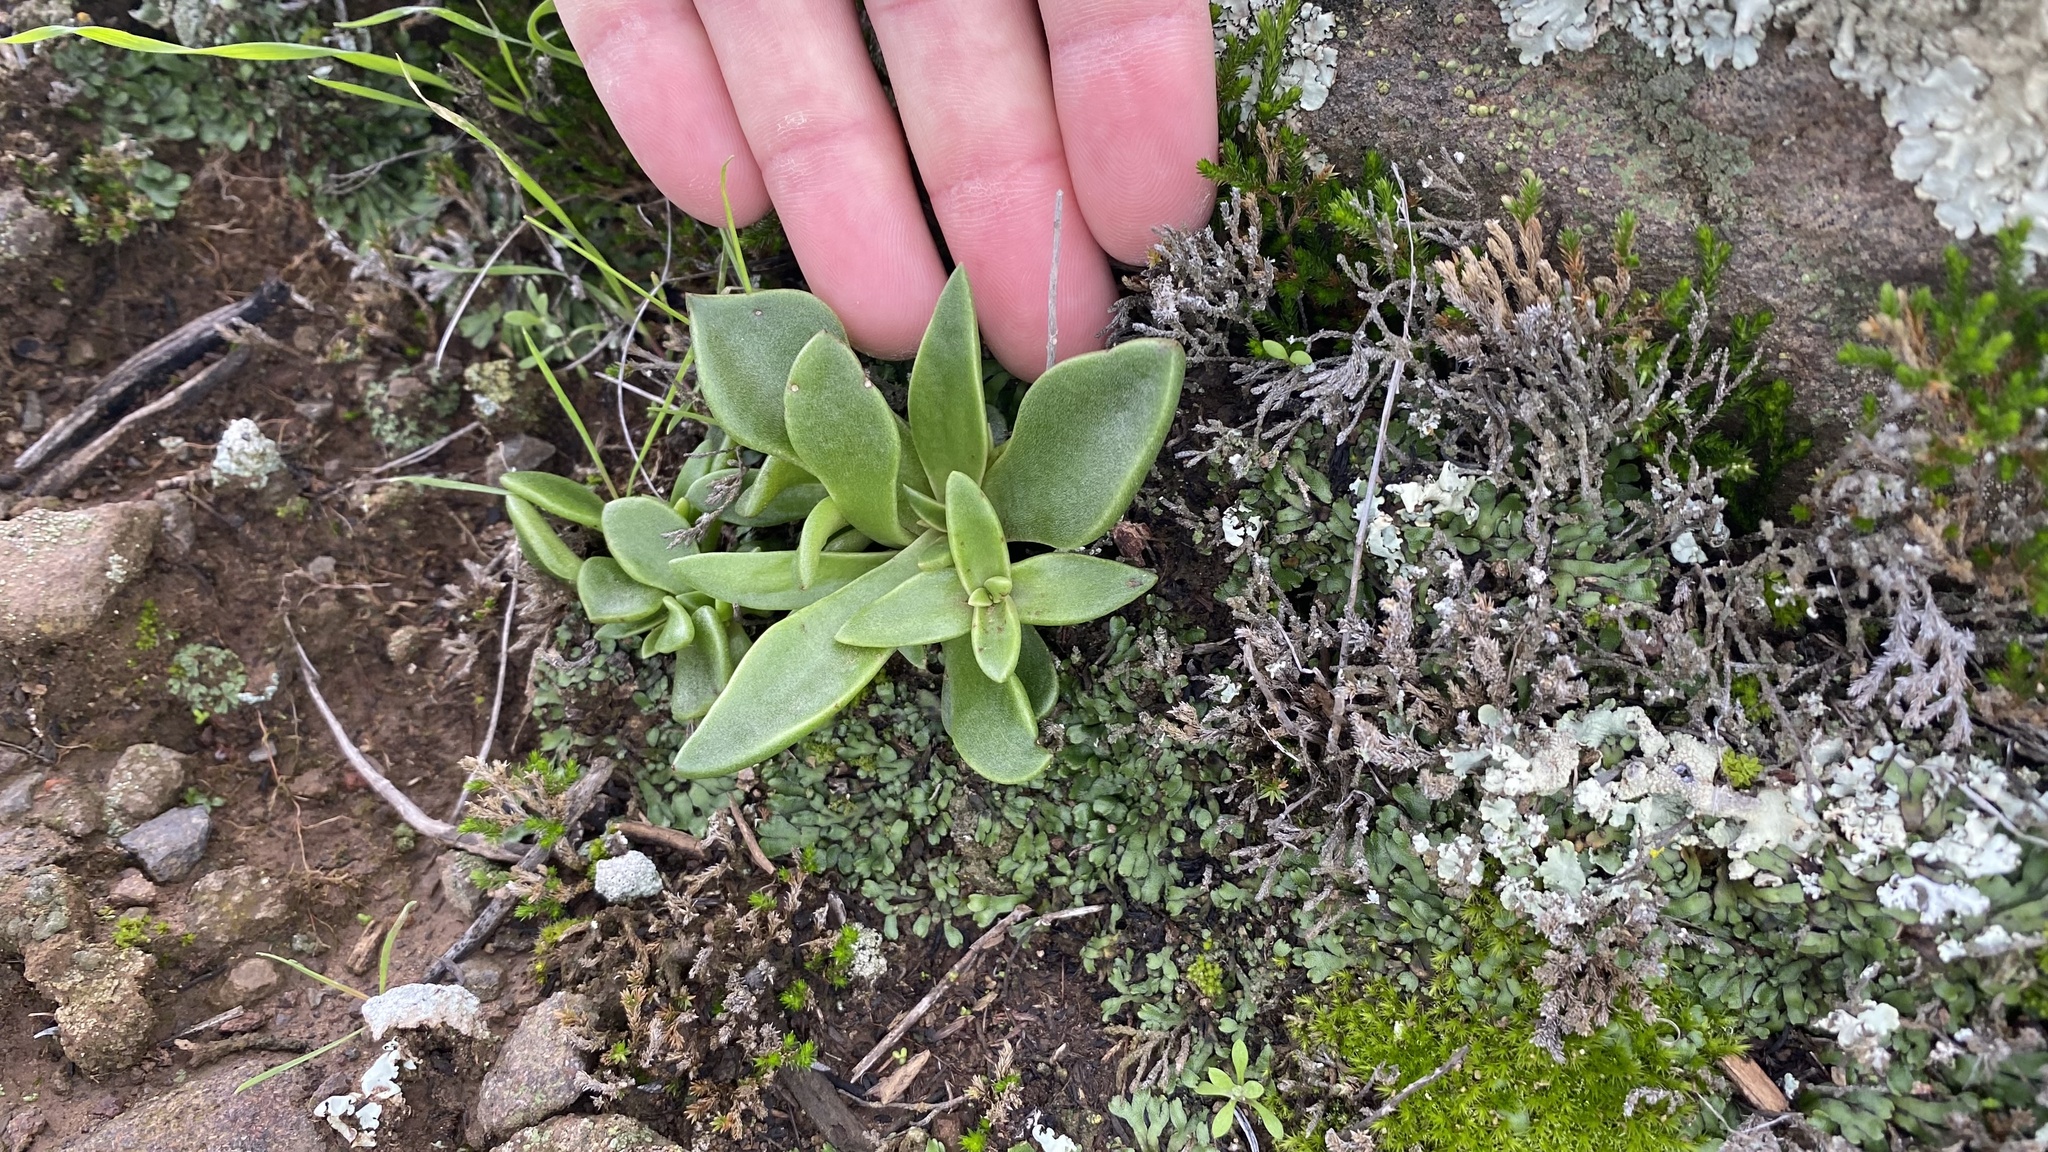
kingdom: Plantae
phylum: Tracheophyta
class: Magnoliopsida
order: Saxifragales
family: Crassulaceae
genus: Dudleya
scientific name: Dudleya parva
